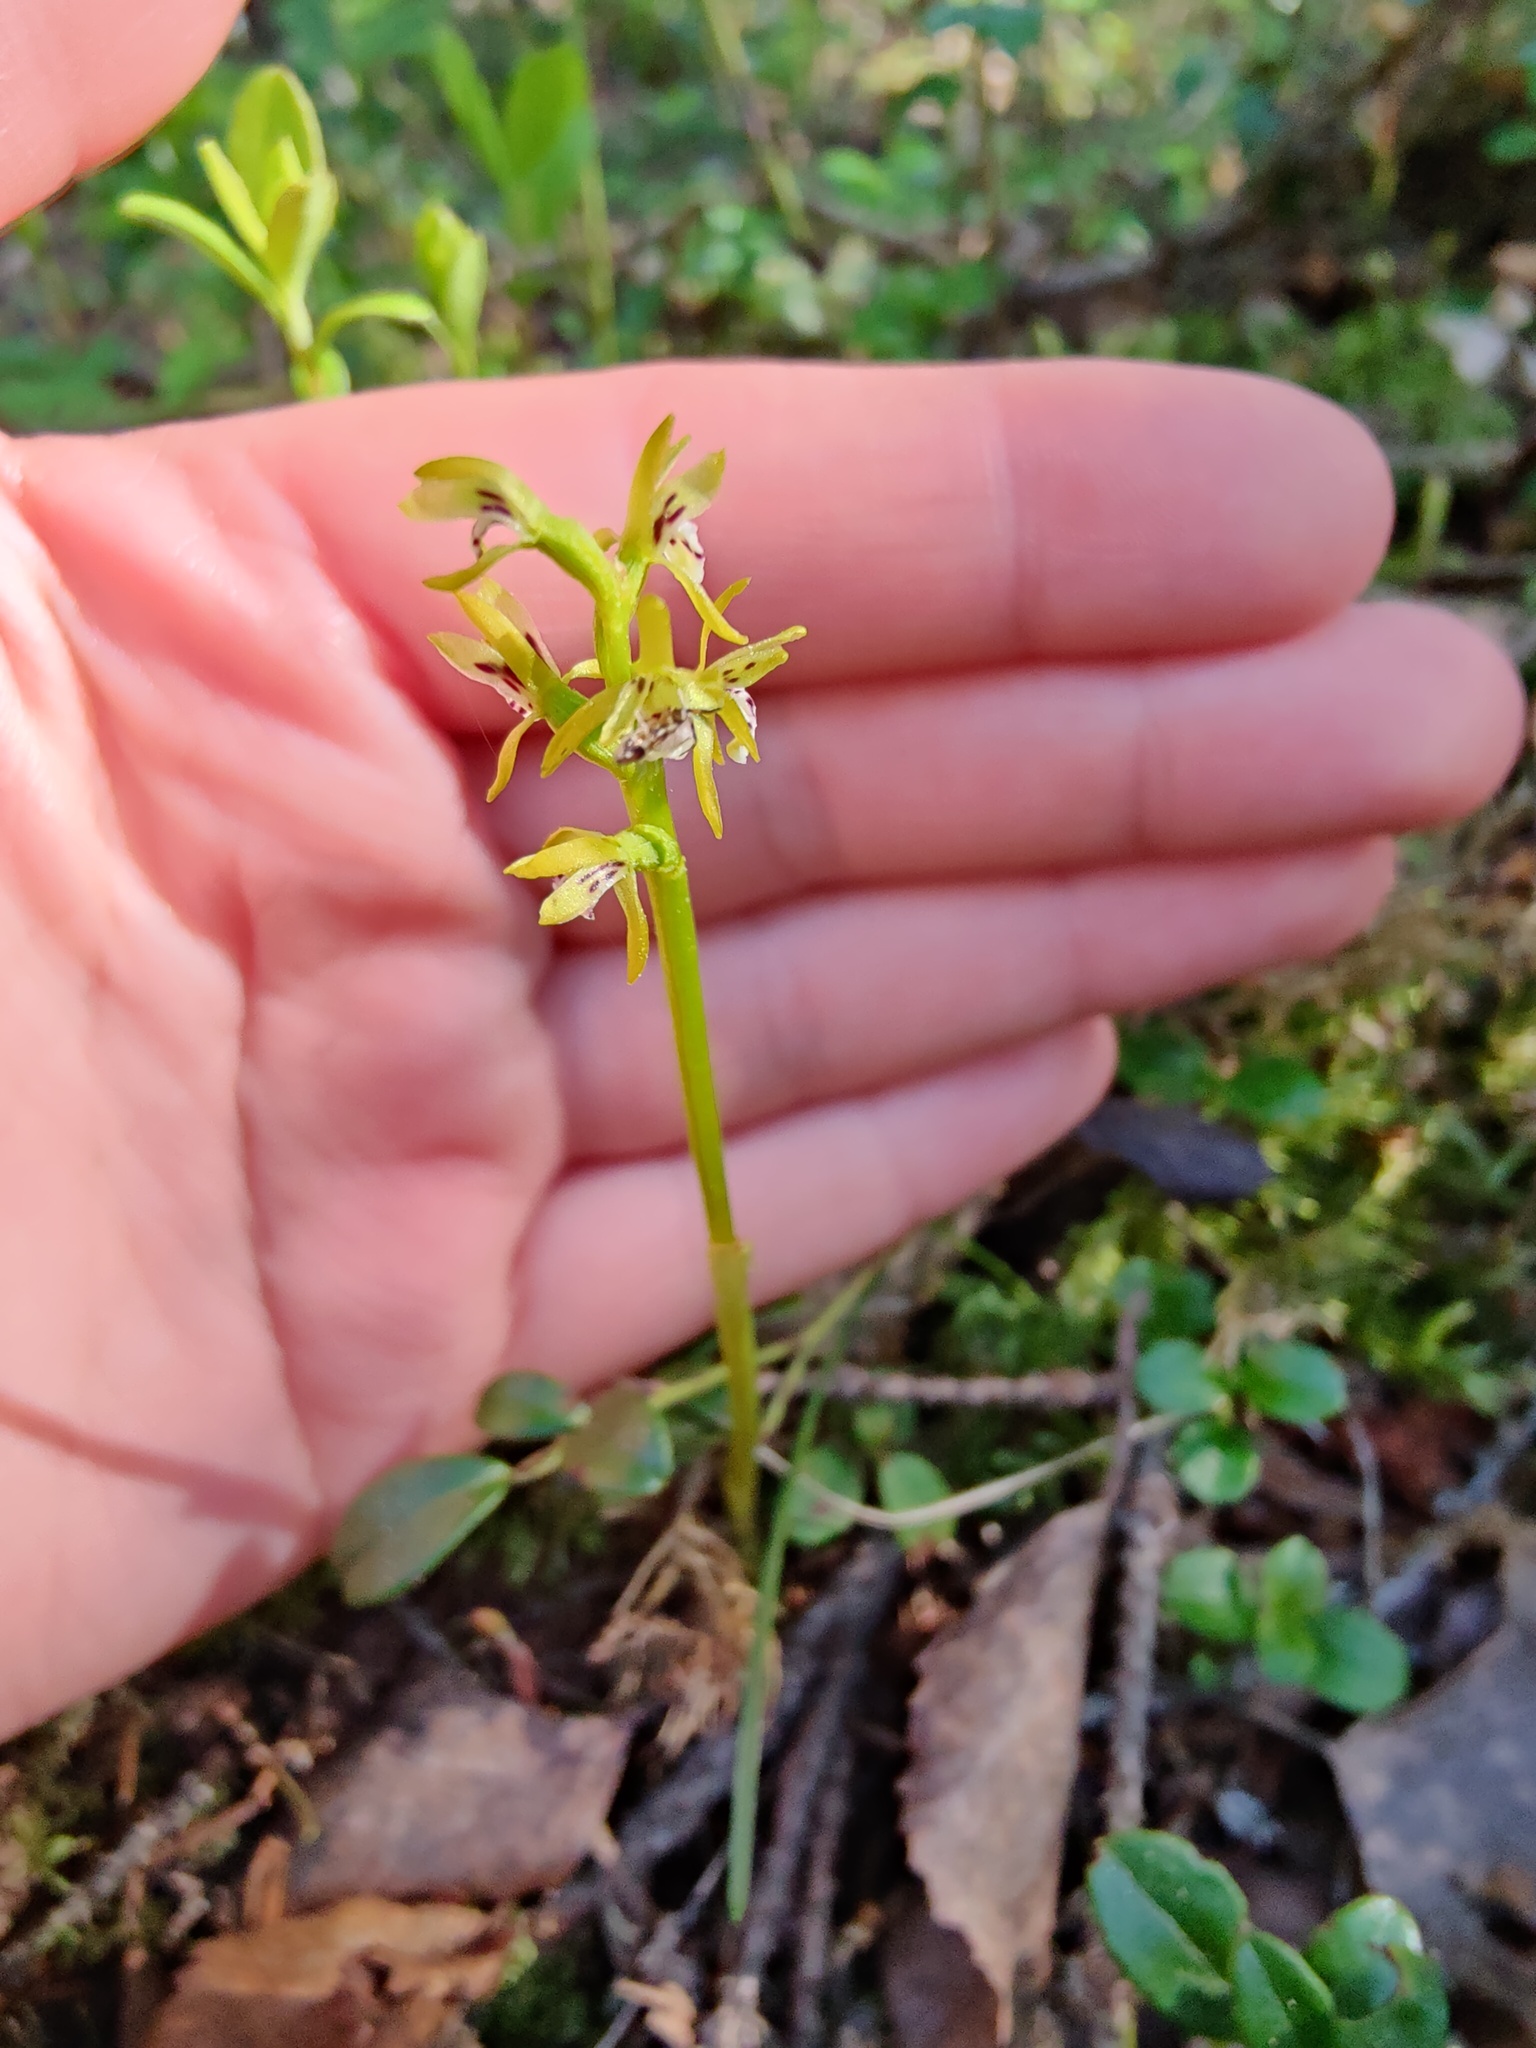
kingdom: Plantae
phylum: Tracheophyta
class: Liliopsida
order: Asparagales
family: Orchidaceae
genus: Corallorhiza
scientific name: Corallorhiza trifida
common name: Yellow coralroot
